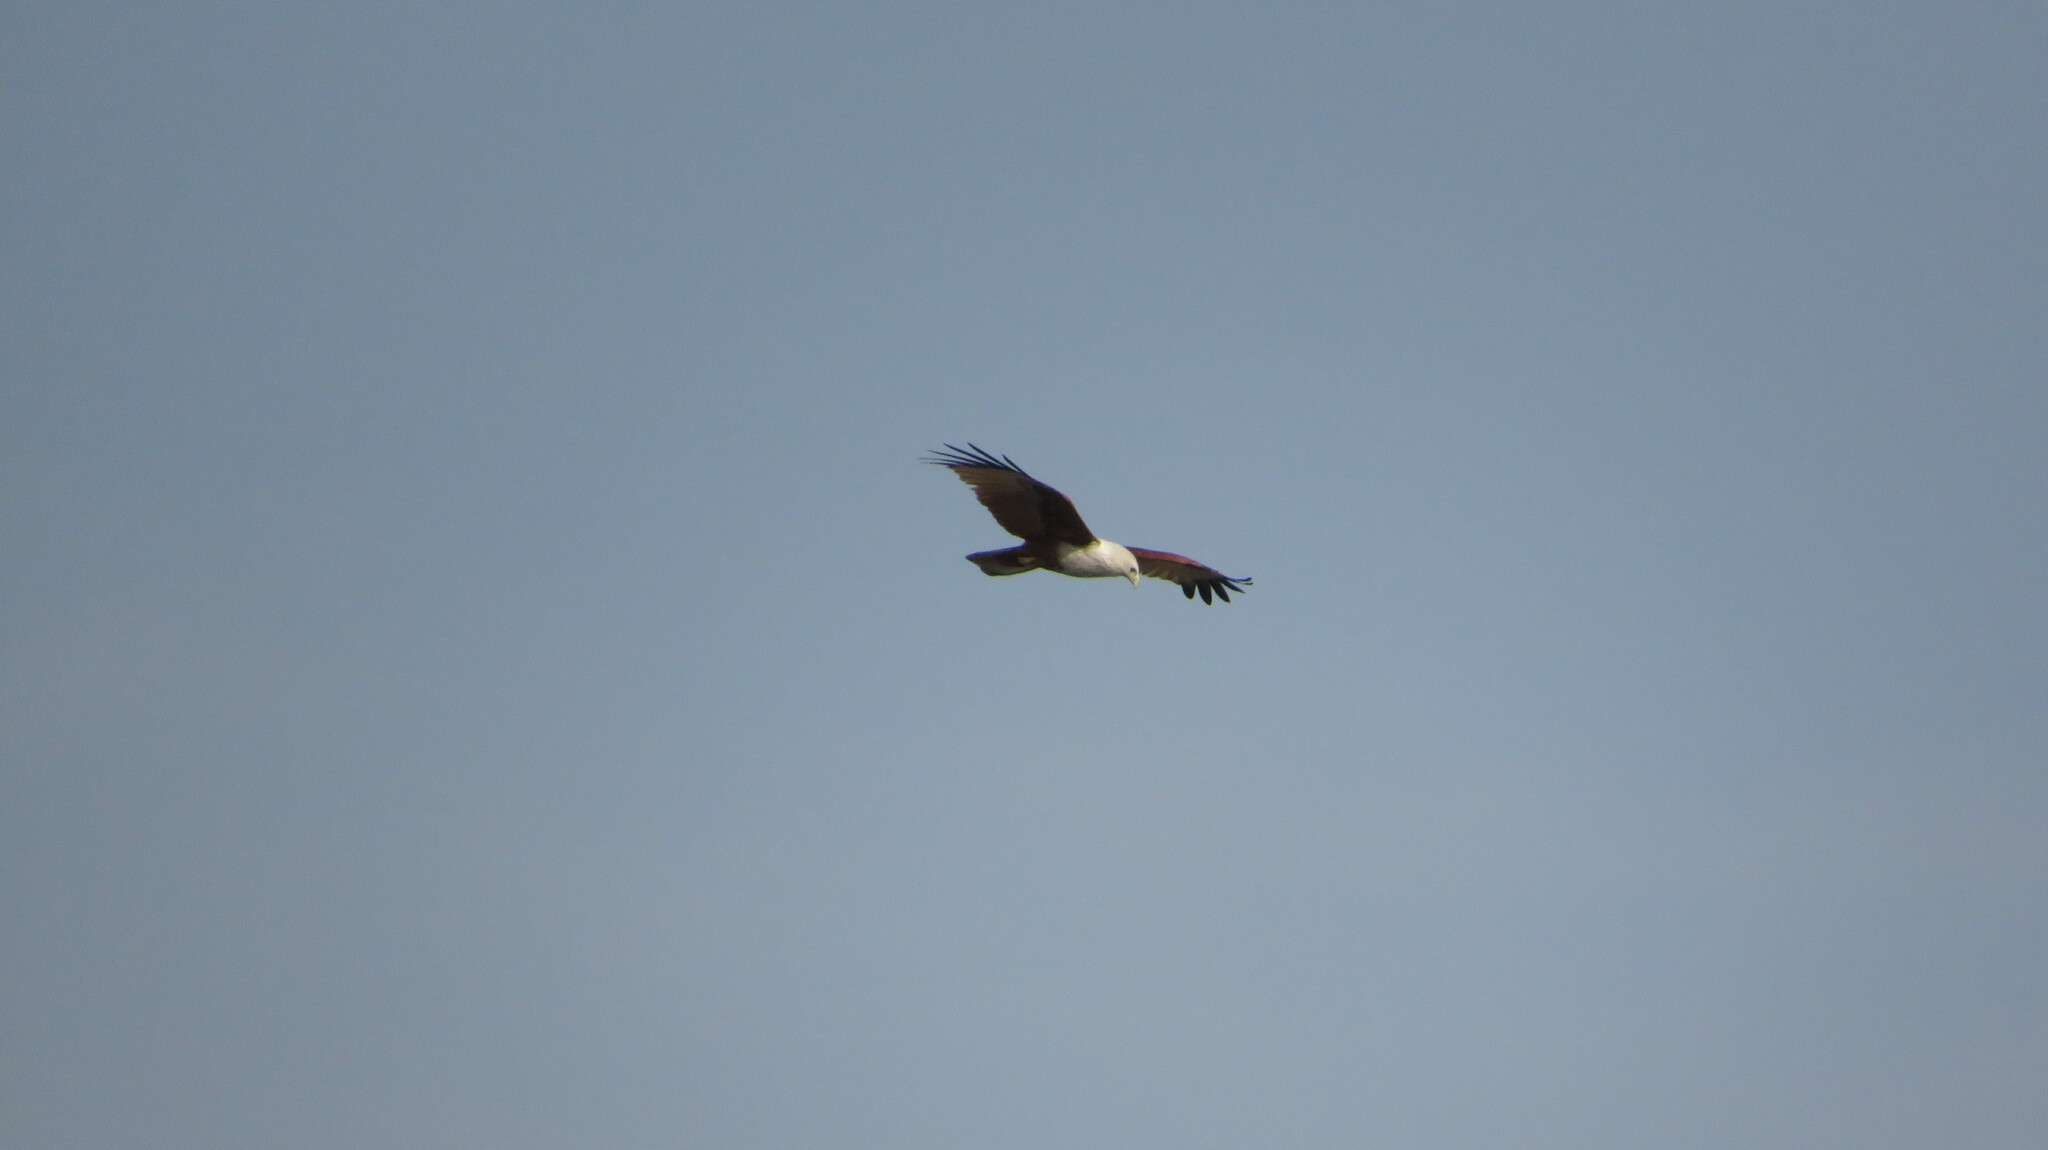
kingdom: Animalia
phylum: Chordata
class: Aves
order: Accipitriformes
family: Accipitridae
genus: Haliastur
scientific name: Haliastur indus
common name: Brahminy kite
